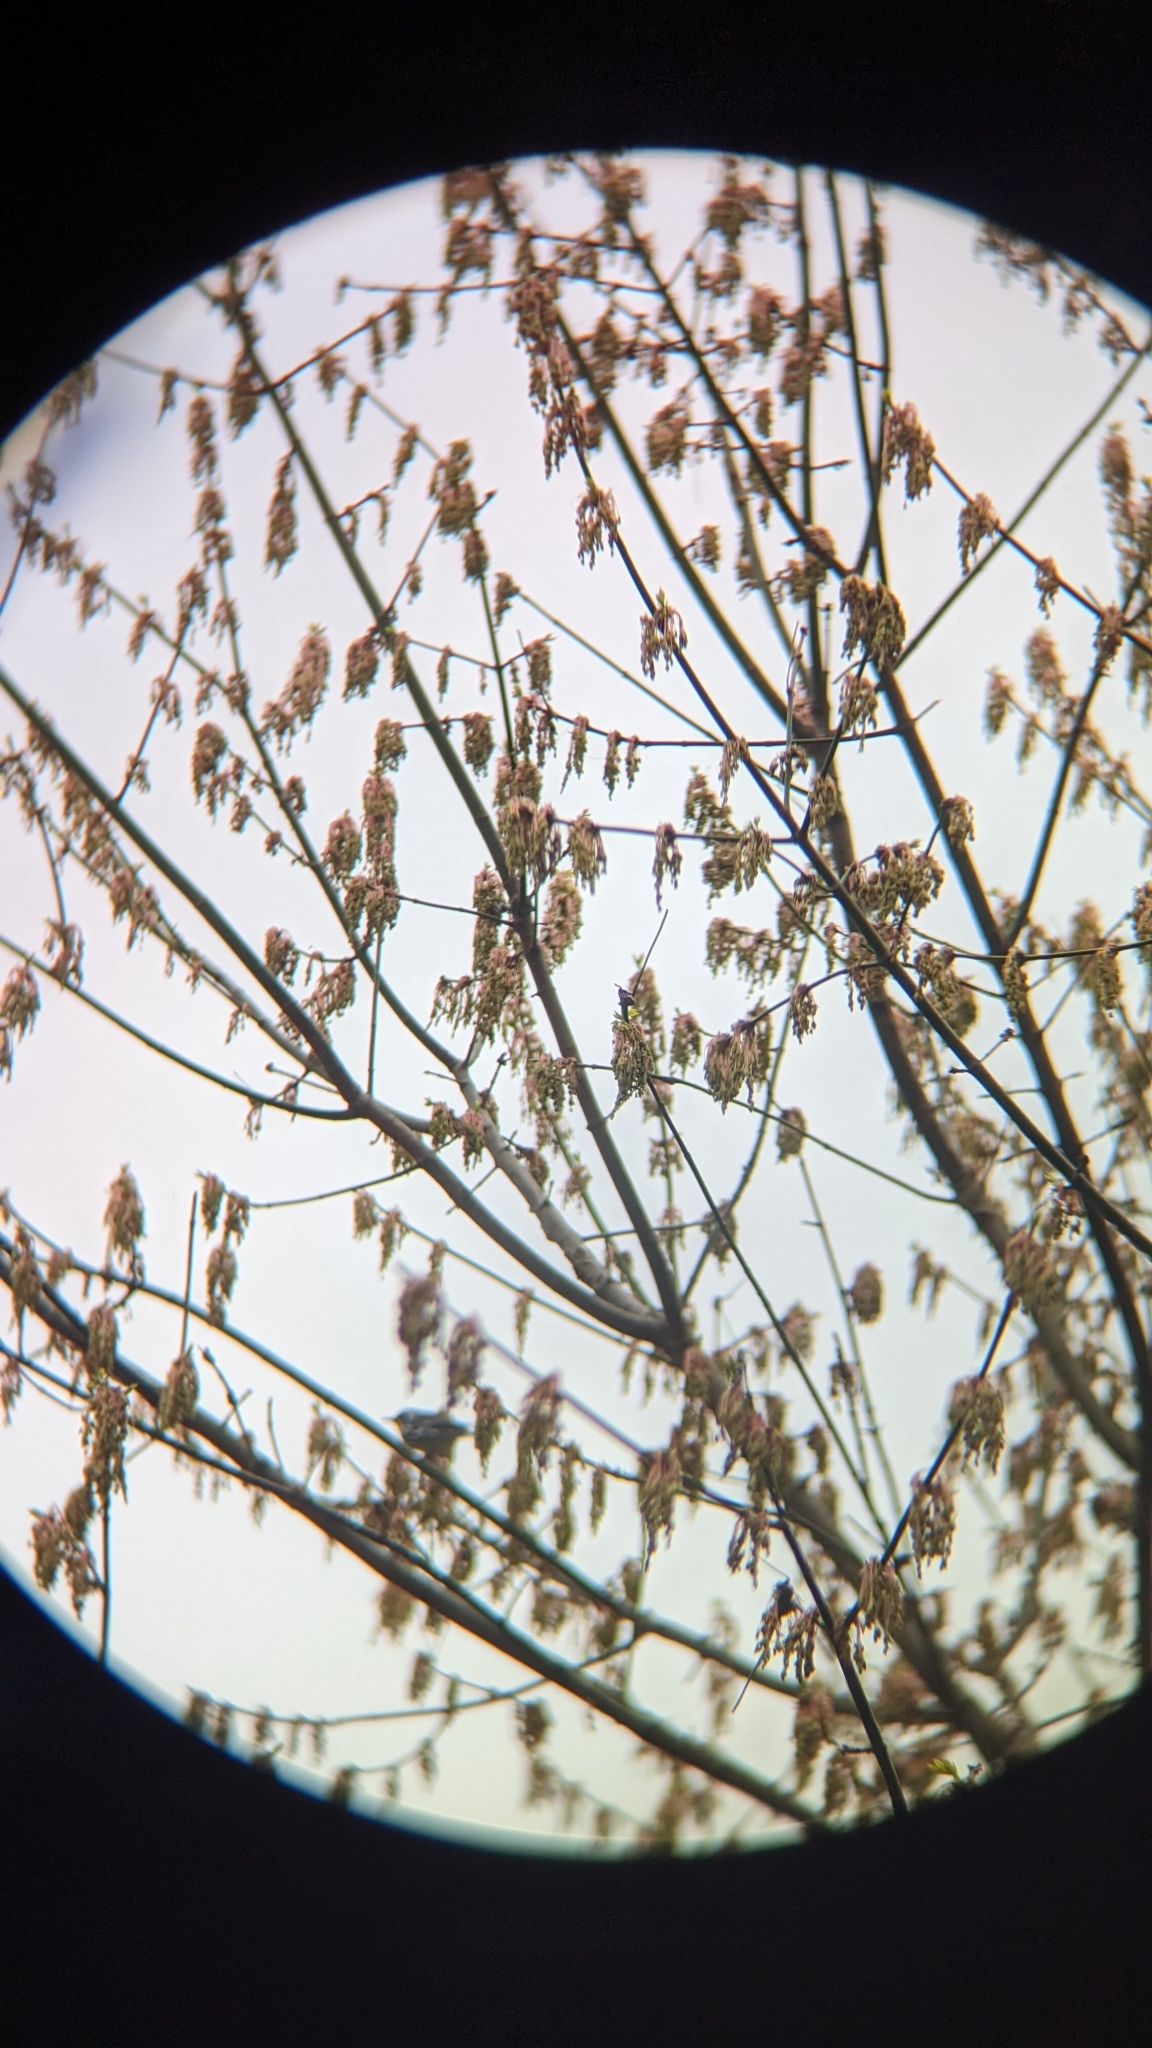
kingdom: Plantae
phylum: Tracheophyta
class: Magnoliopsida
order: Sapindales
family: Sapindaceae
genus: Acer
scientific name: Acer negundo
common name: Ashleaf maple
